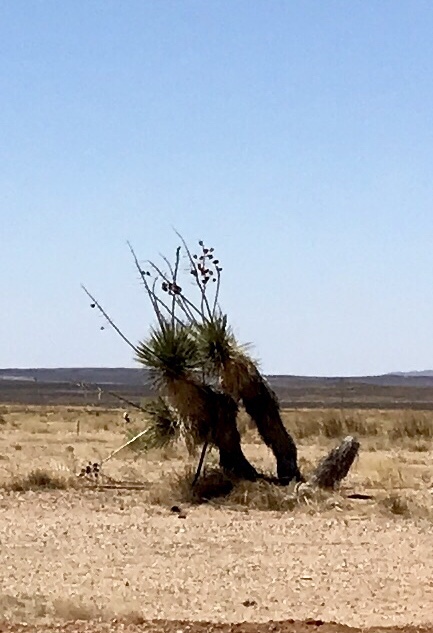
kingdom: Plantae
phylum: Tracheophyta
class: Liliopsida
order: Asparagales
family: Asparagaceae
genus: Yucca
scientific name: Yucca elata
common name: Palmella
